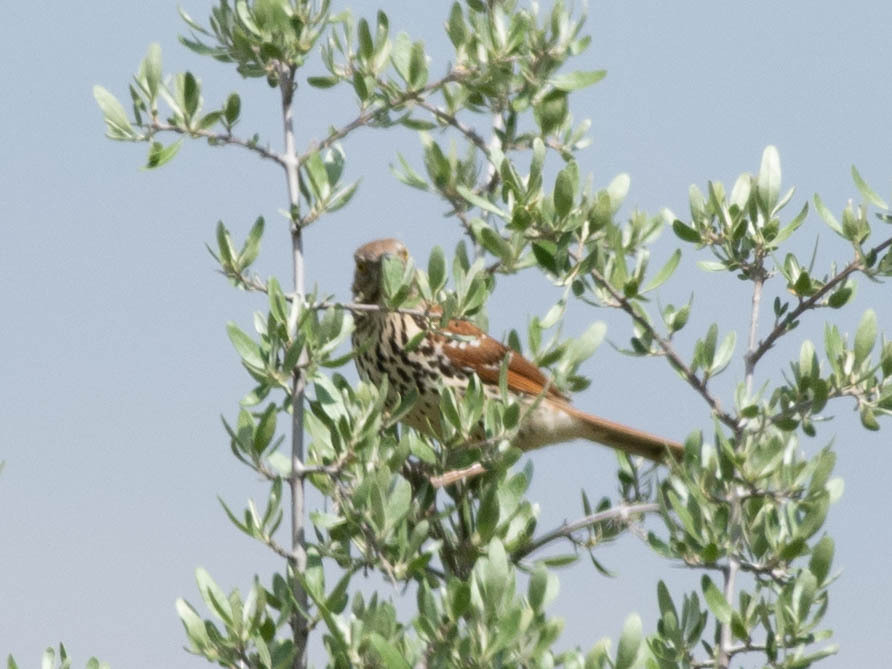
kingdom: Animalia
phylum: Chordata
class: Aves
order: Passeriformes
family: Mimidae
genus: Toxostoma
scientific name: Toxostoma rufum
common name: Brown thrasher
